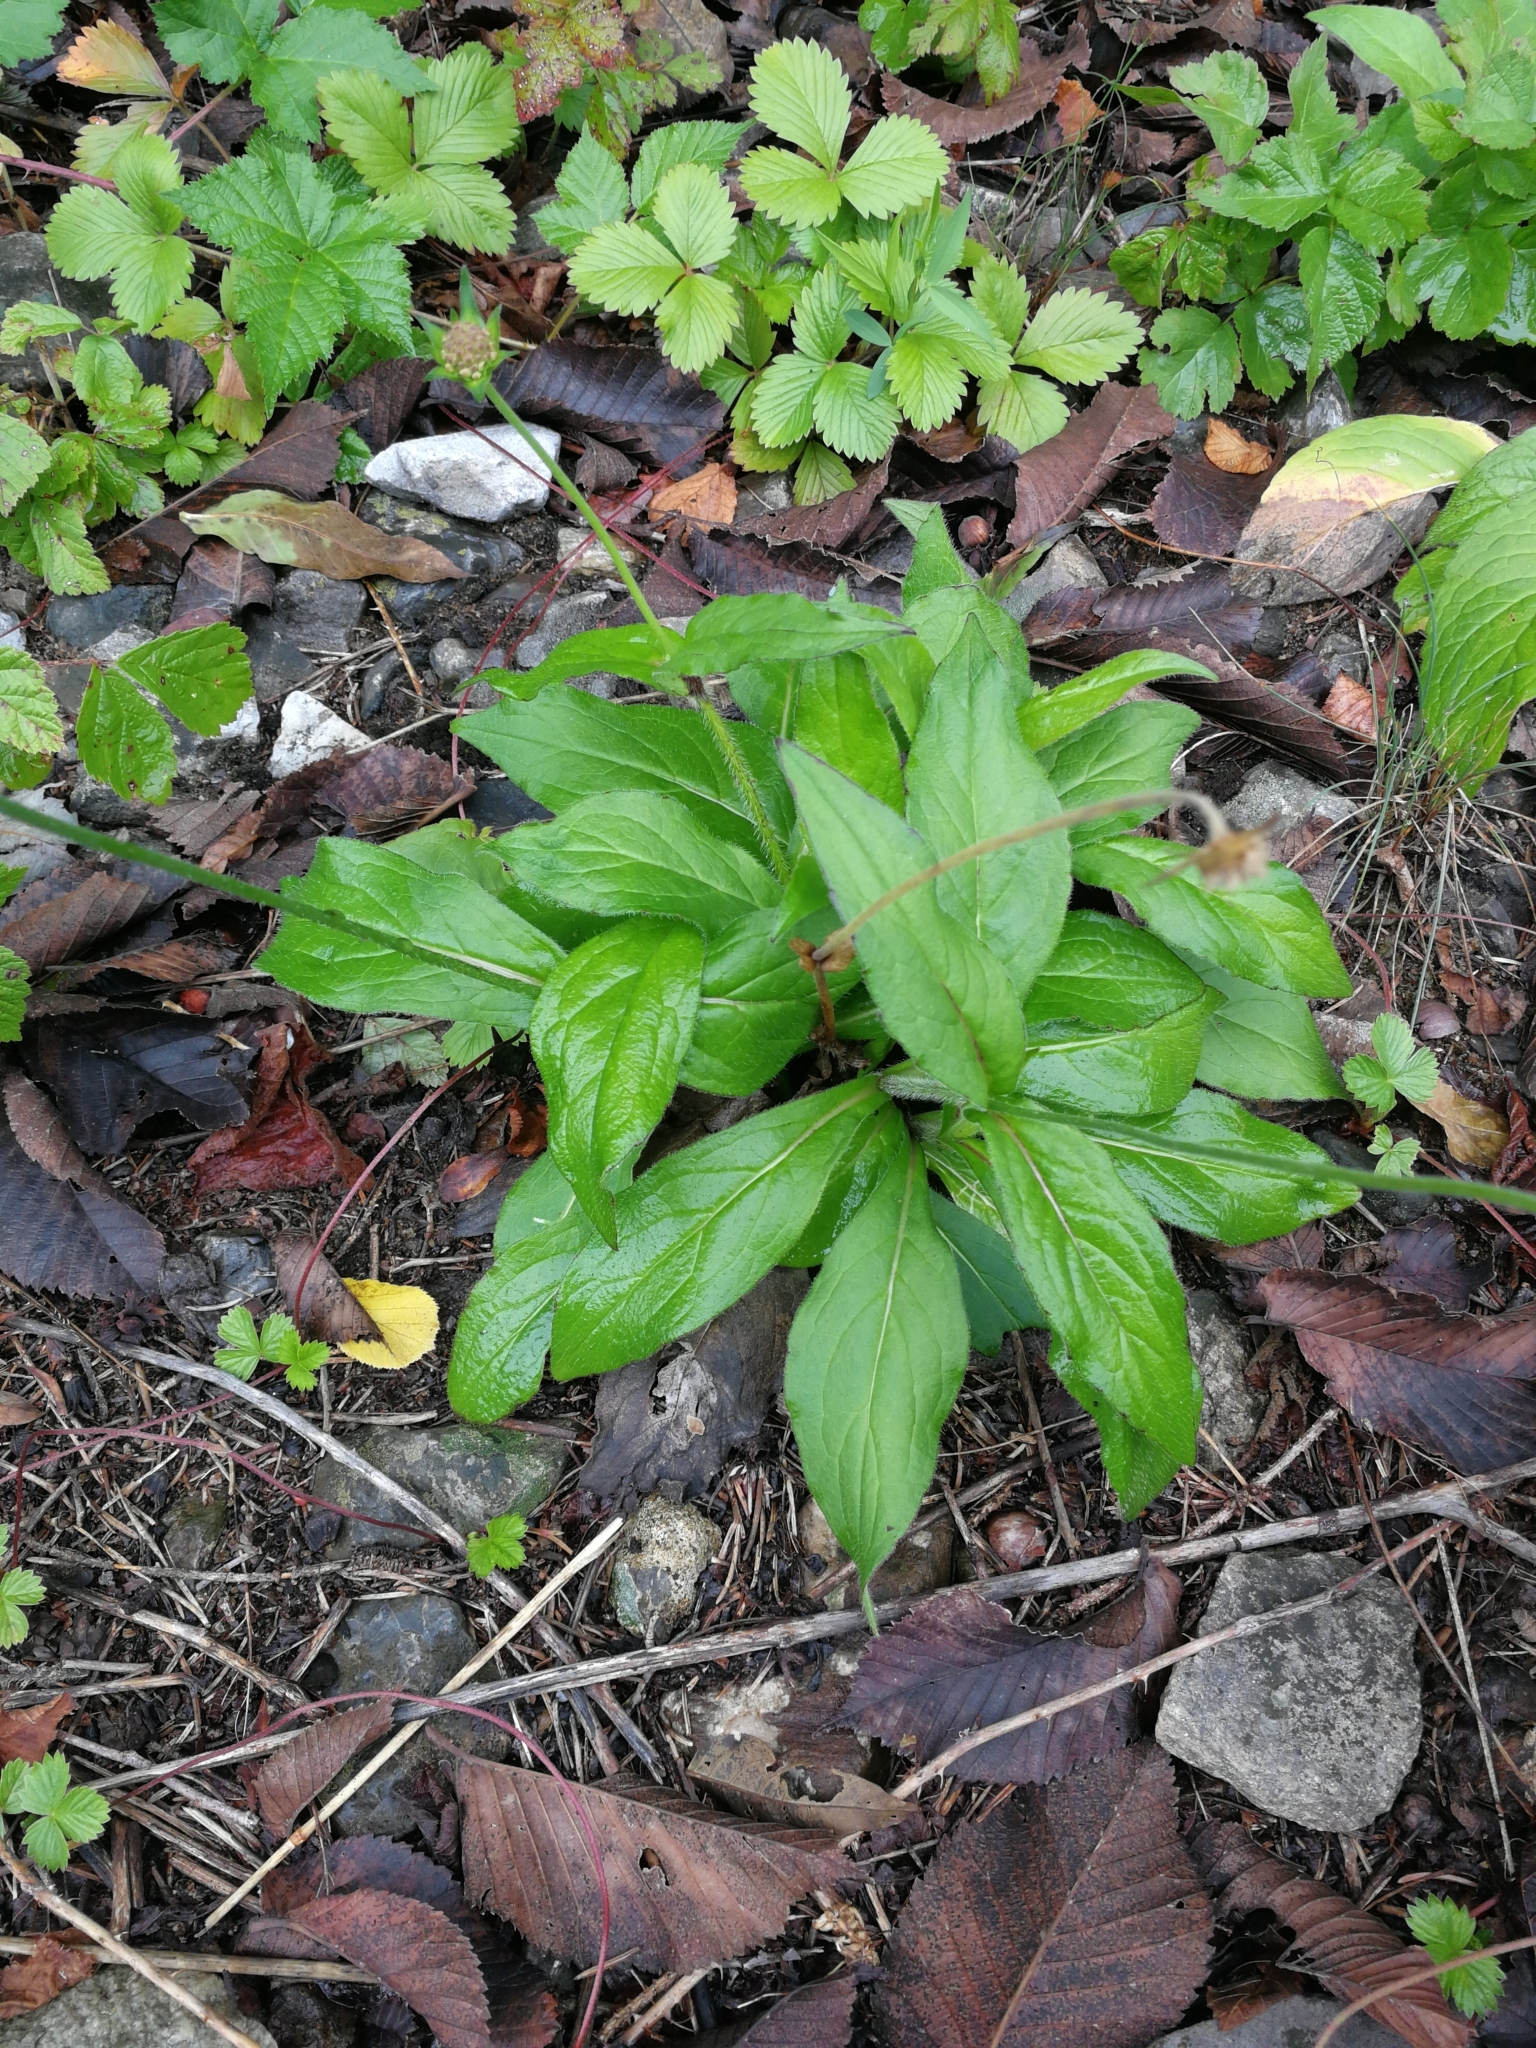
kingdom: Plantae
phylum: Tracheophyta
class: Magnoliopsida
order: Dipsacales
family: Caprifoliaceae
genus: Knautia
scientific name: Knautia dipsacifolia
